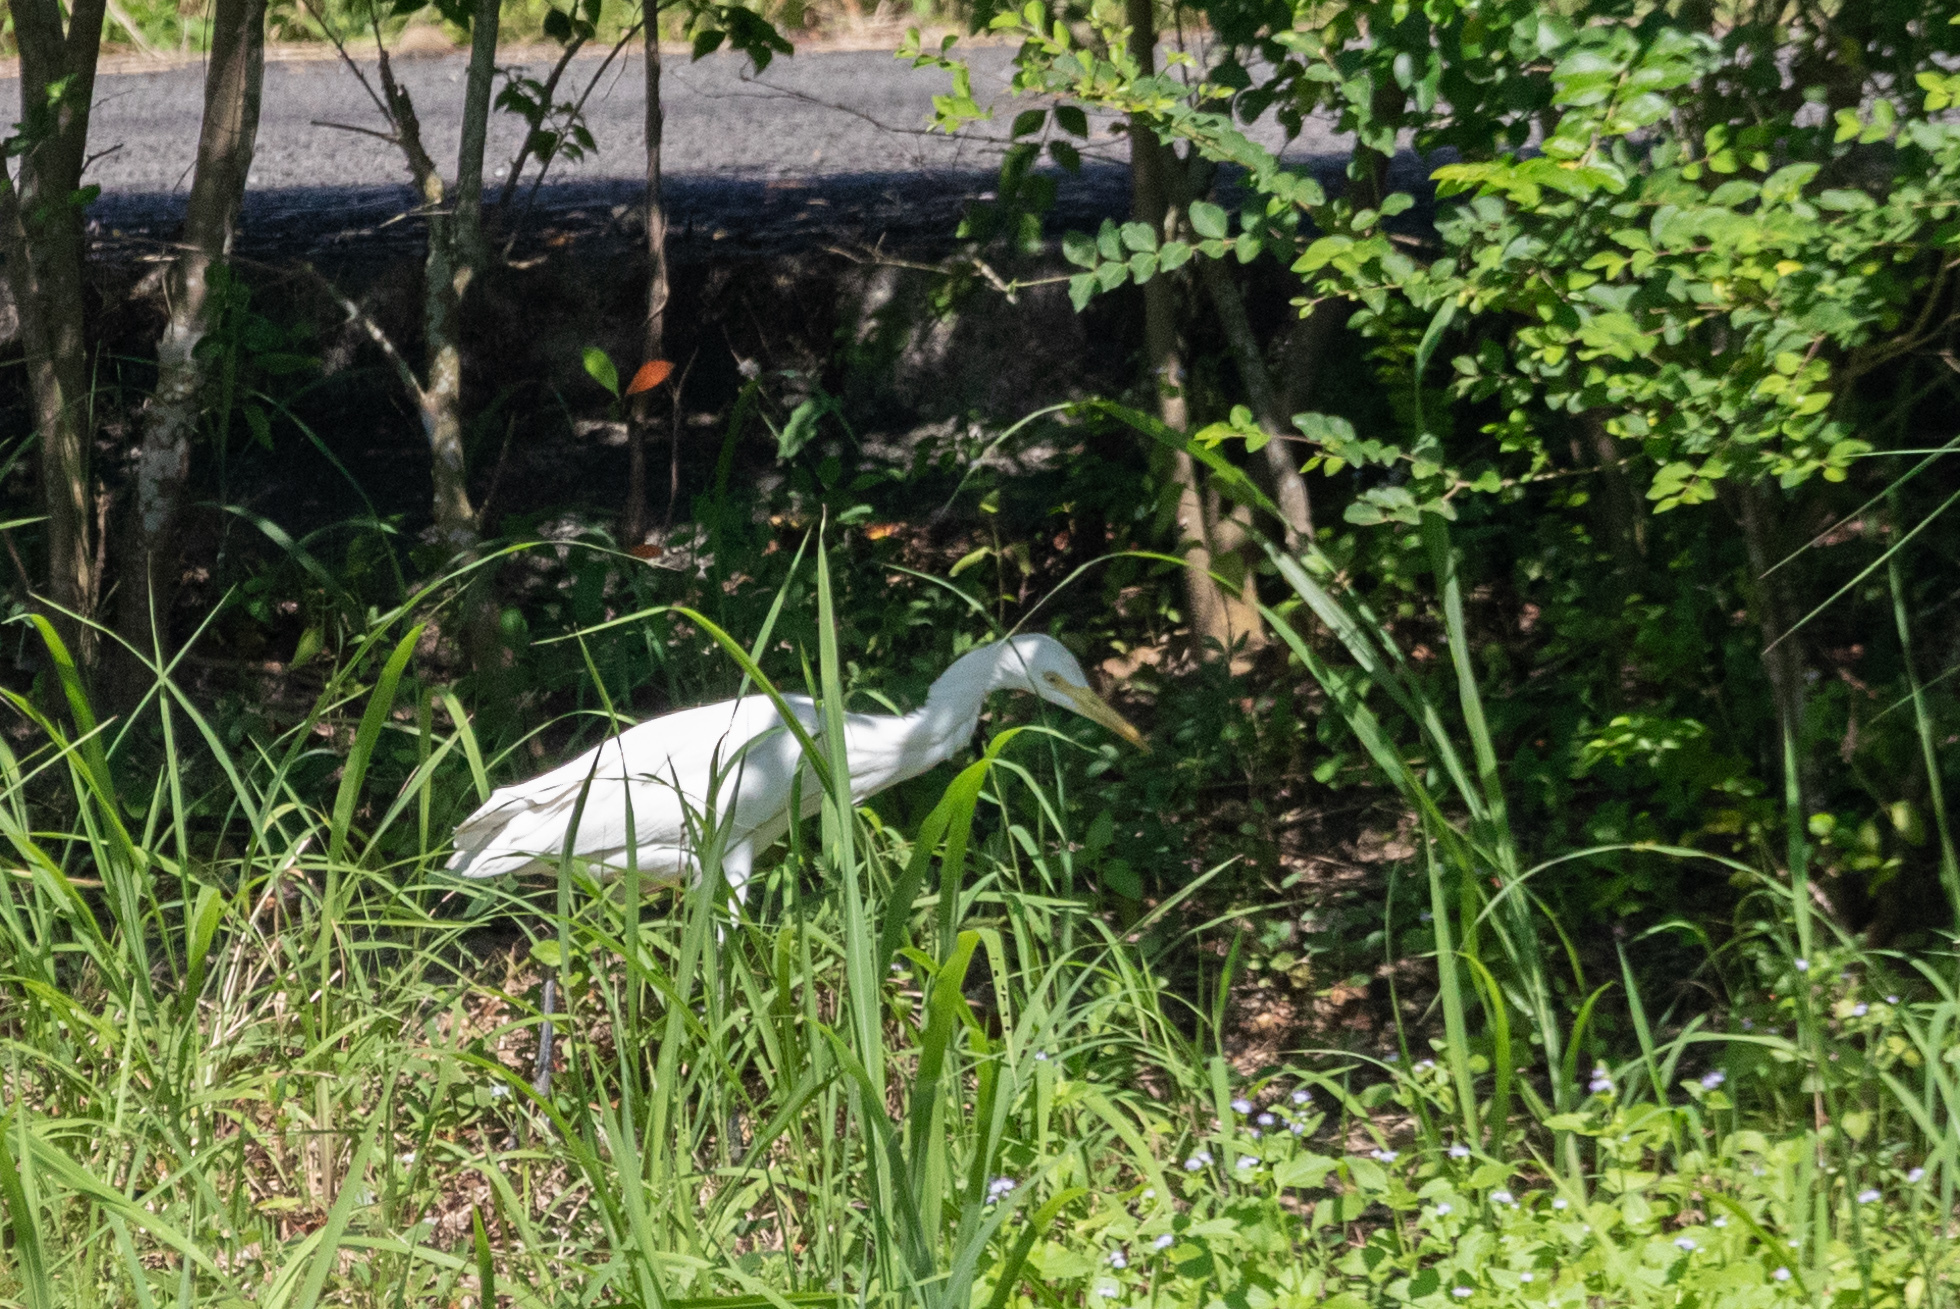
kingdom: Animalia
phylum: Chordata
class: Aves
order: Pelecaniformes
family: Ardeidae
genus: Bubulcus
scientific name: Bubulcus coromandus
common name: Eastern cattle egret
